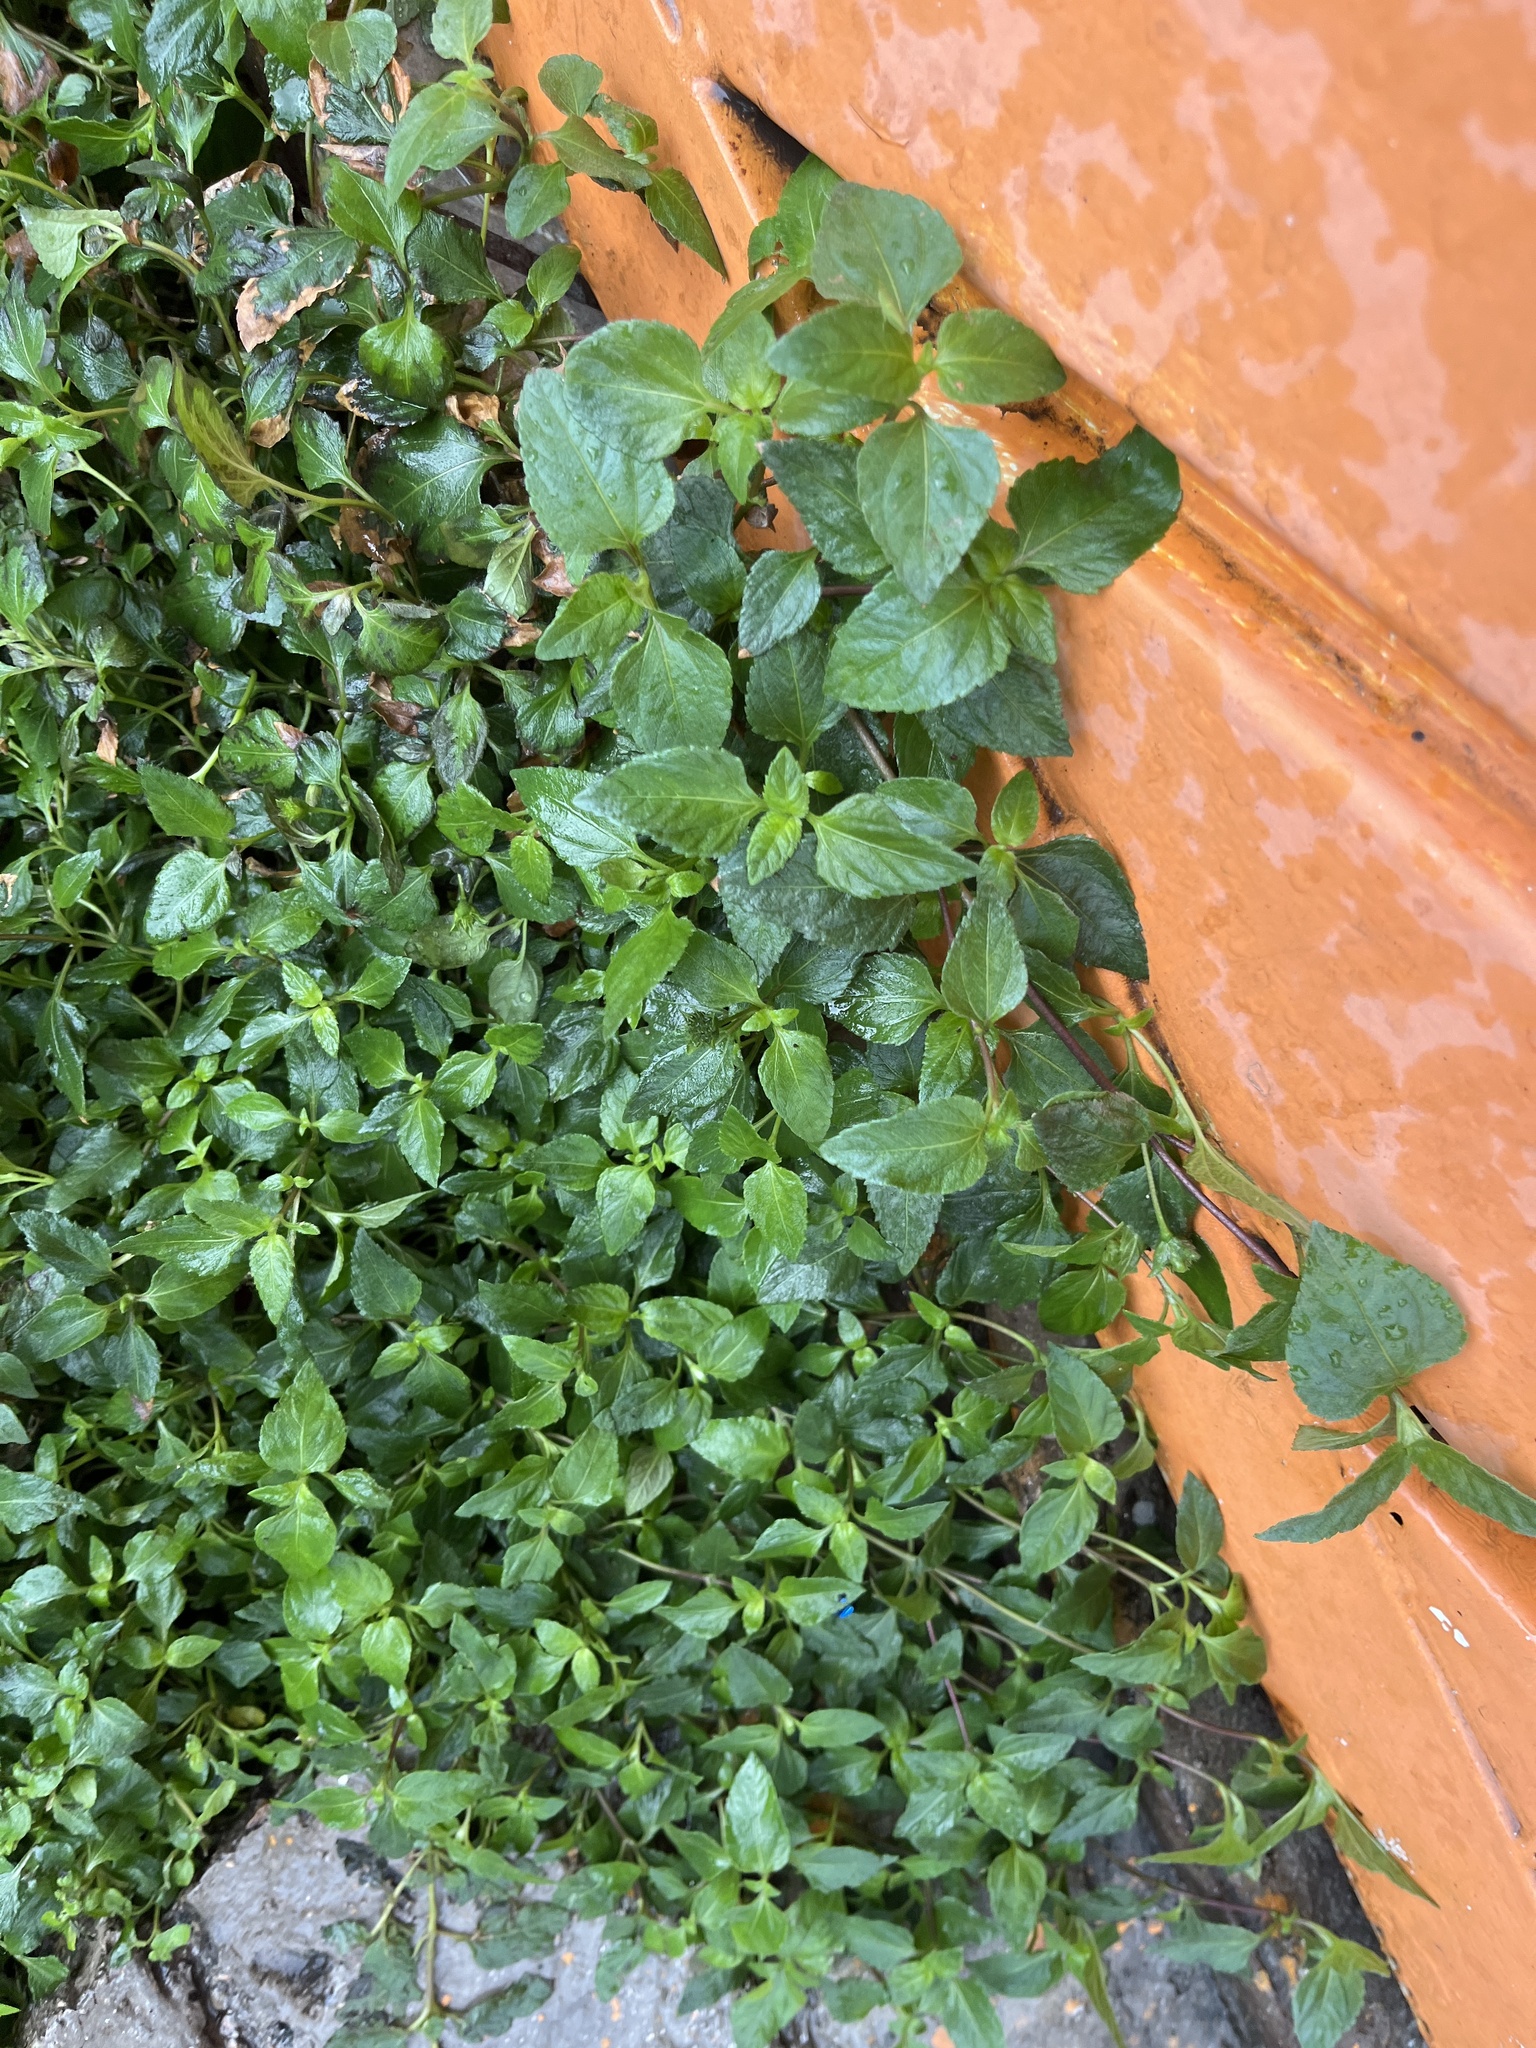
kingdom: Plantae
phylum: Tracheophyta
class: Magnoliopsida
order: Asterales
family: Asteraceae
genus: Calyptocarpus
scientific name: Calyptocarpus vialis
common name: Straggler daisy
